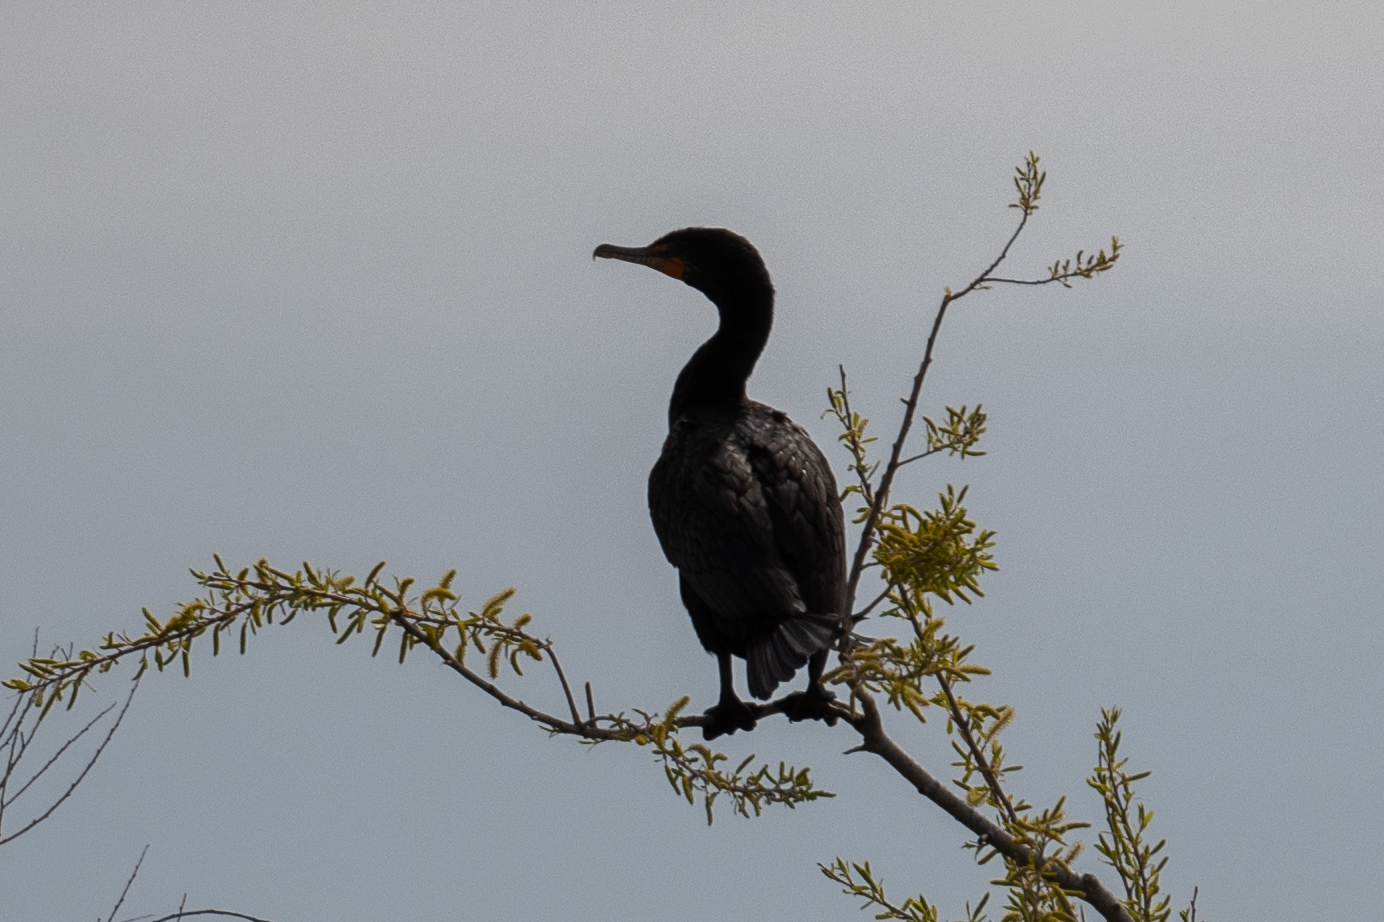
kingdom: Animalia
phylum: Chordata
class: Aves
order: Suliformes
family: Phalacrocoracidae
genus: Phalacrocorax
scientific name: Phalacrocorax auritus
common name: Double-crested cormorant
